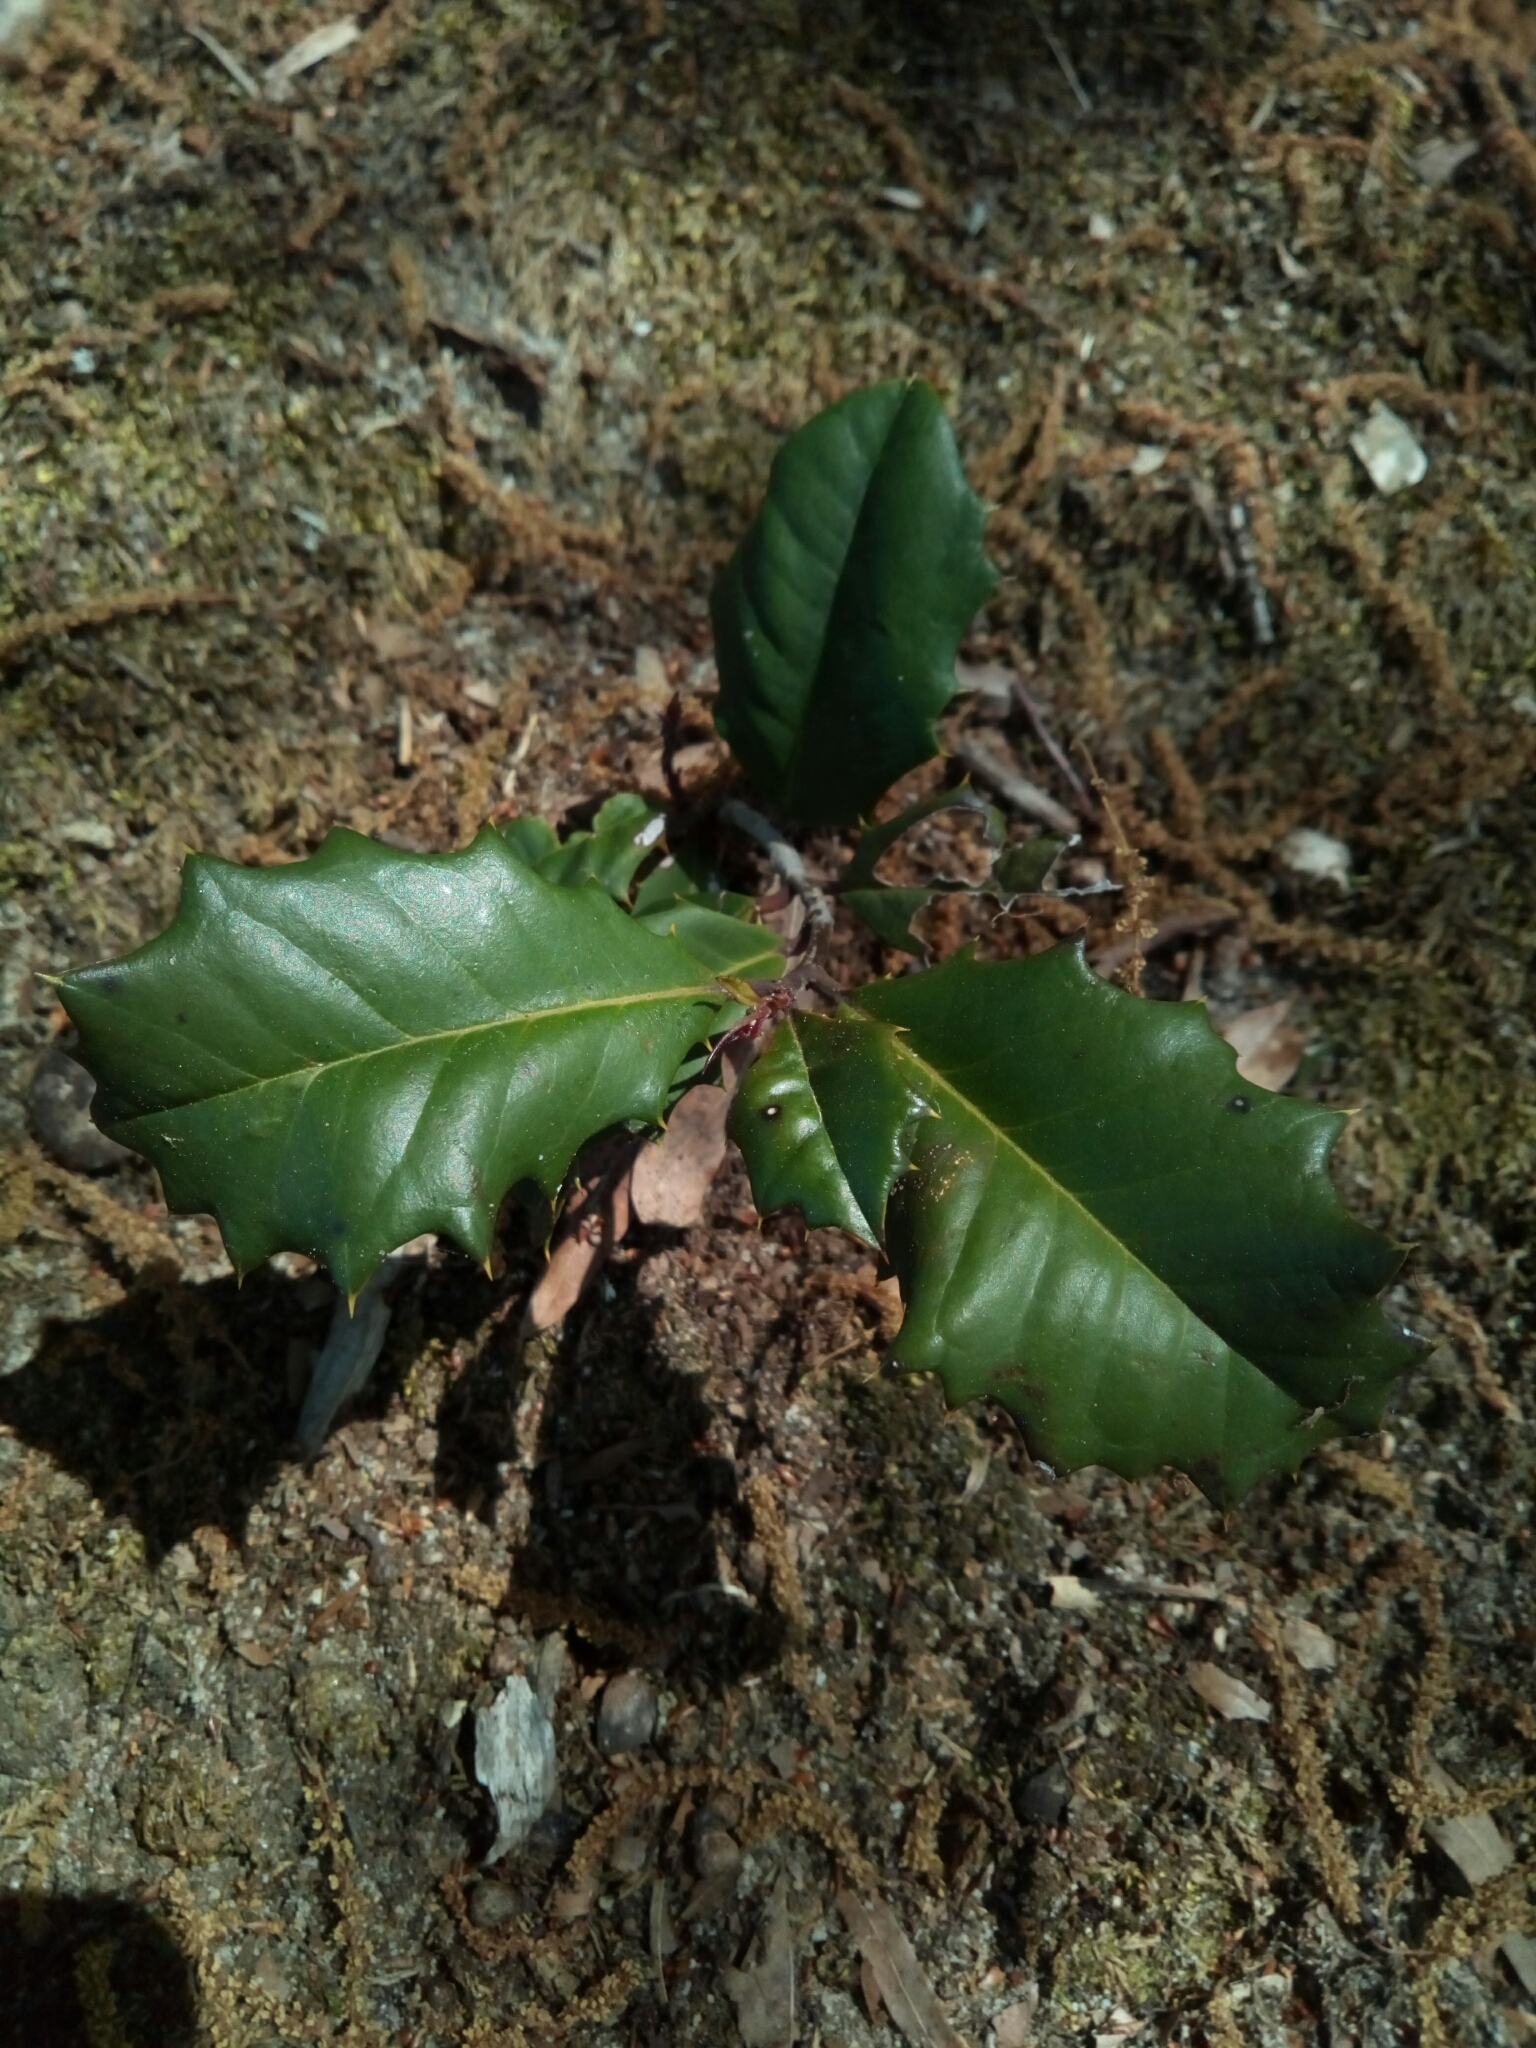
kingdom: Plantae
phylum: Tracheophyta
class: Magnoliopsida
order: Aquifoliales
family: Aquifoliaceae
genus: Ilex
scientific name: Ilex opaca
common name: American holly
